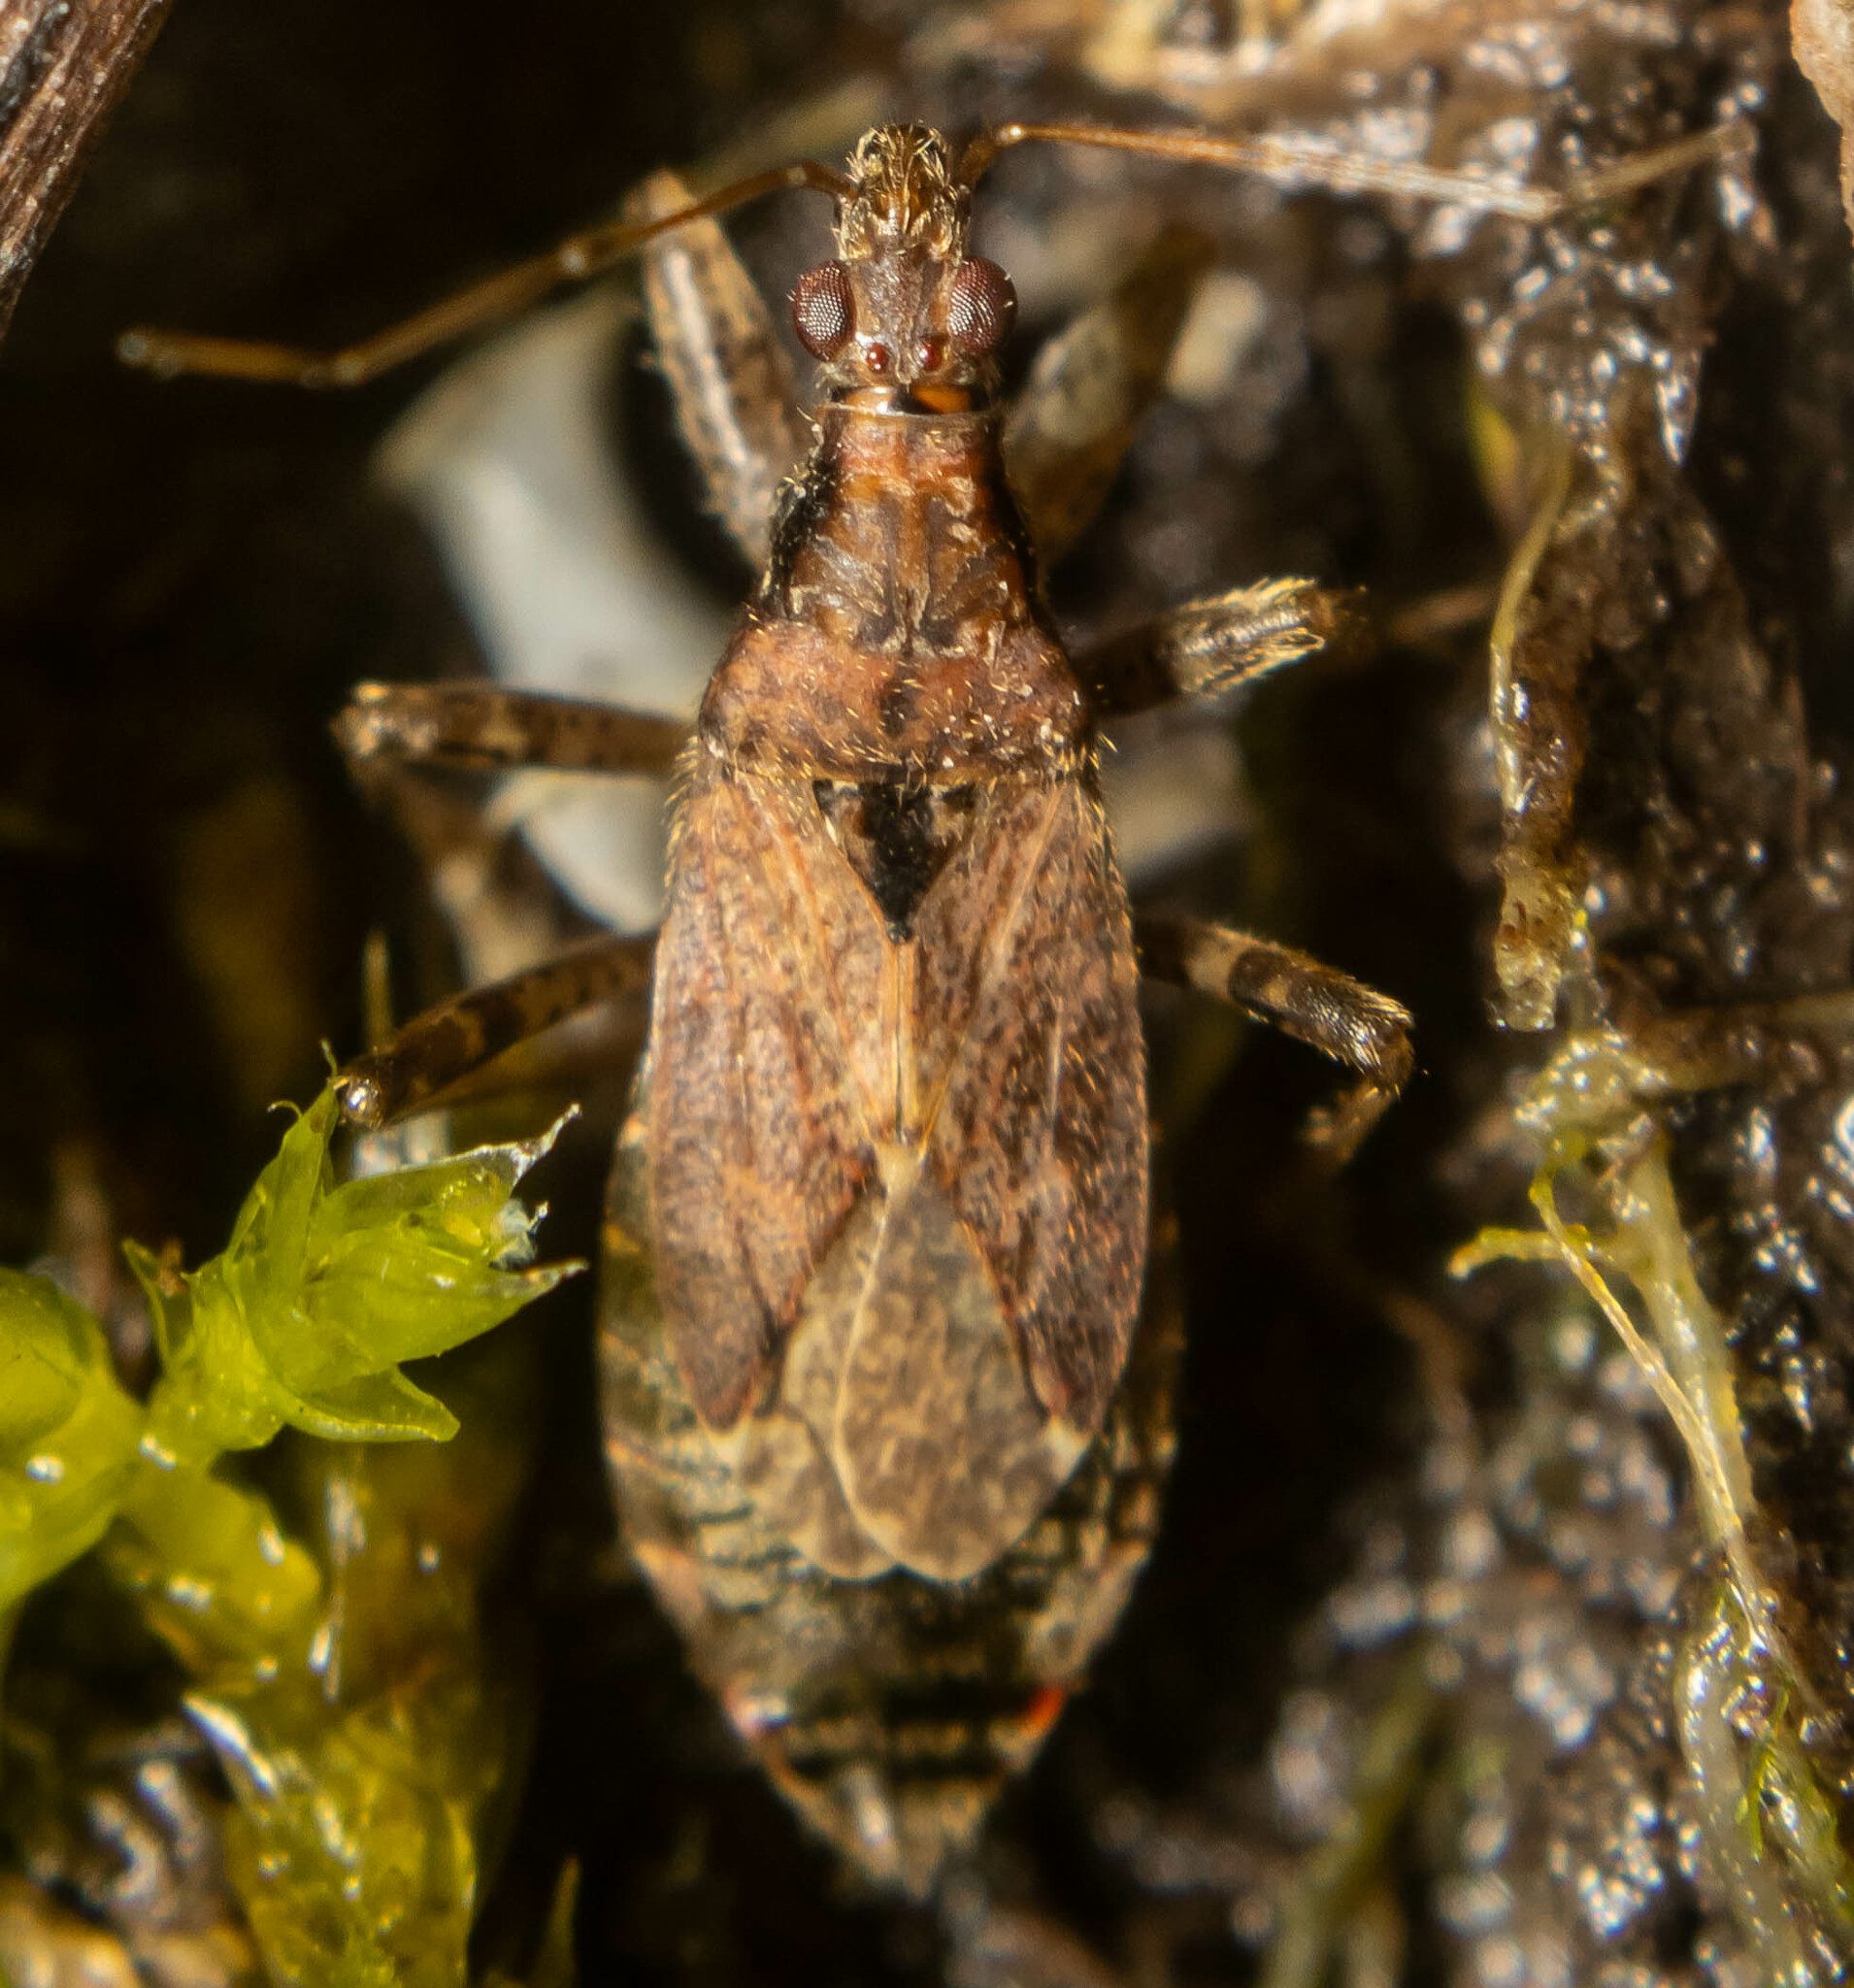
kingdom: Animalia
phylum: Arthropoda
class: Insecta
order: Hemiptera
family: Nabidae
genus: Himacerus
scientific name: Himacerus mirmicoides
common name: Ant damsel bug
